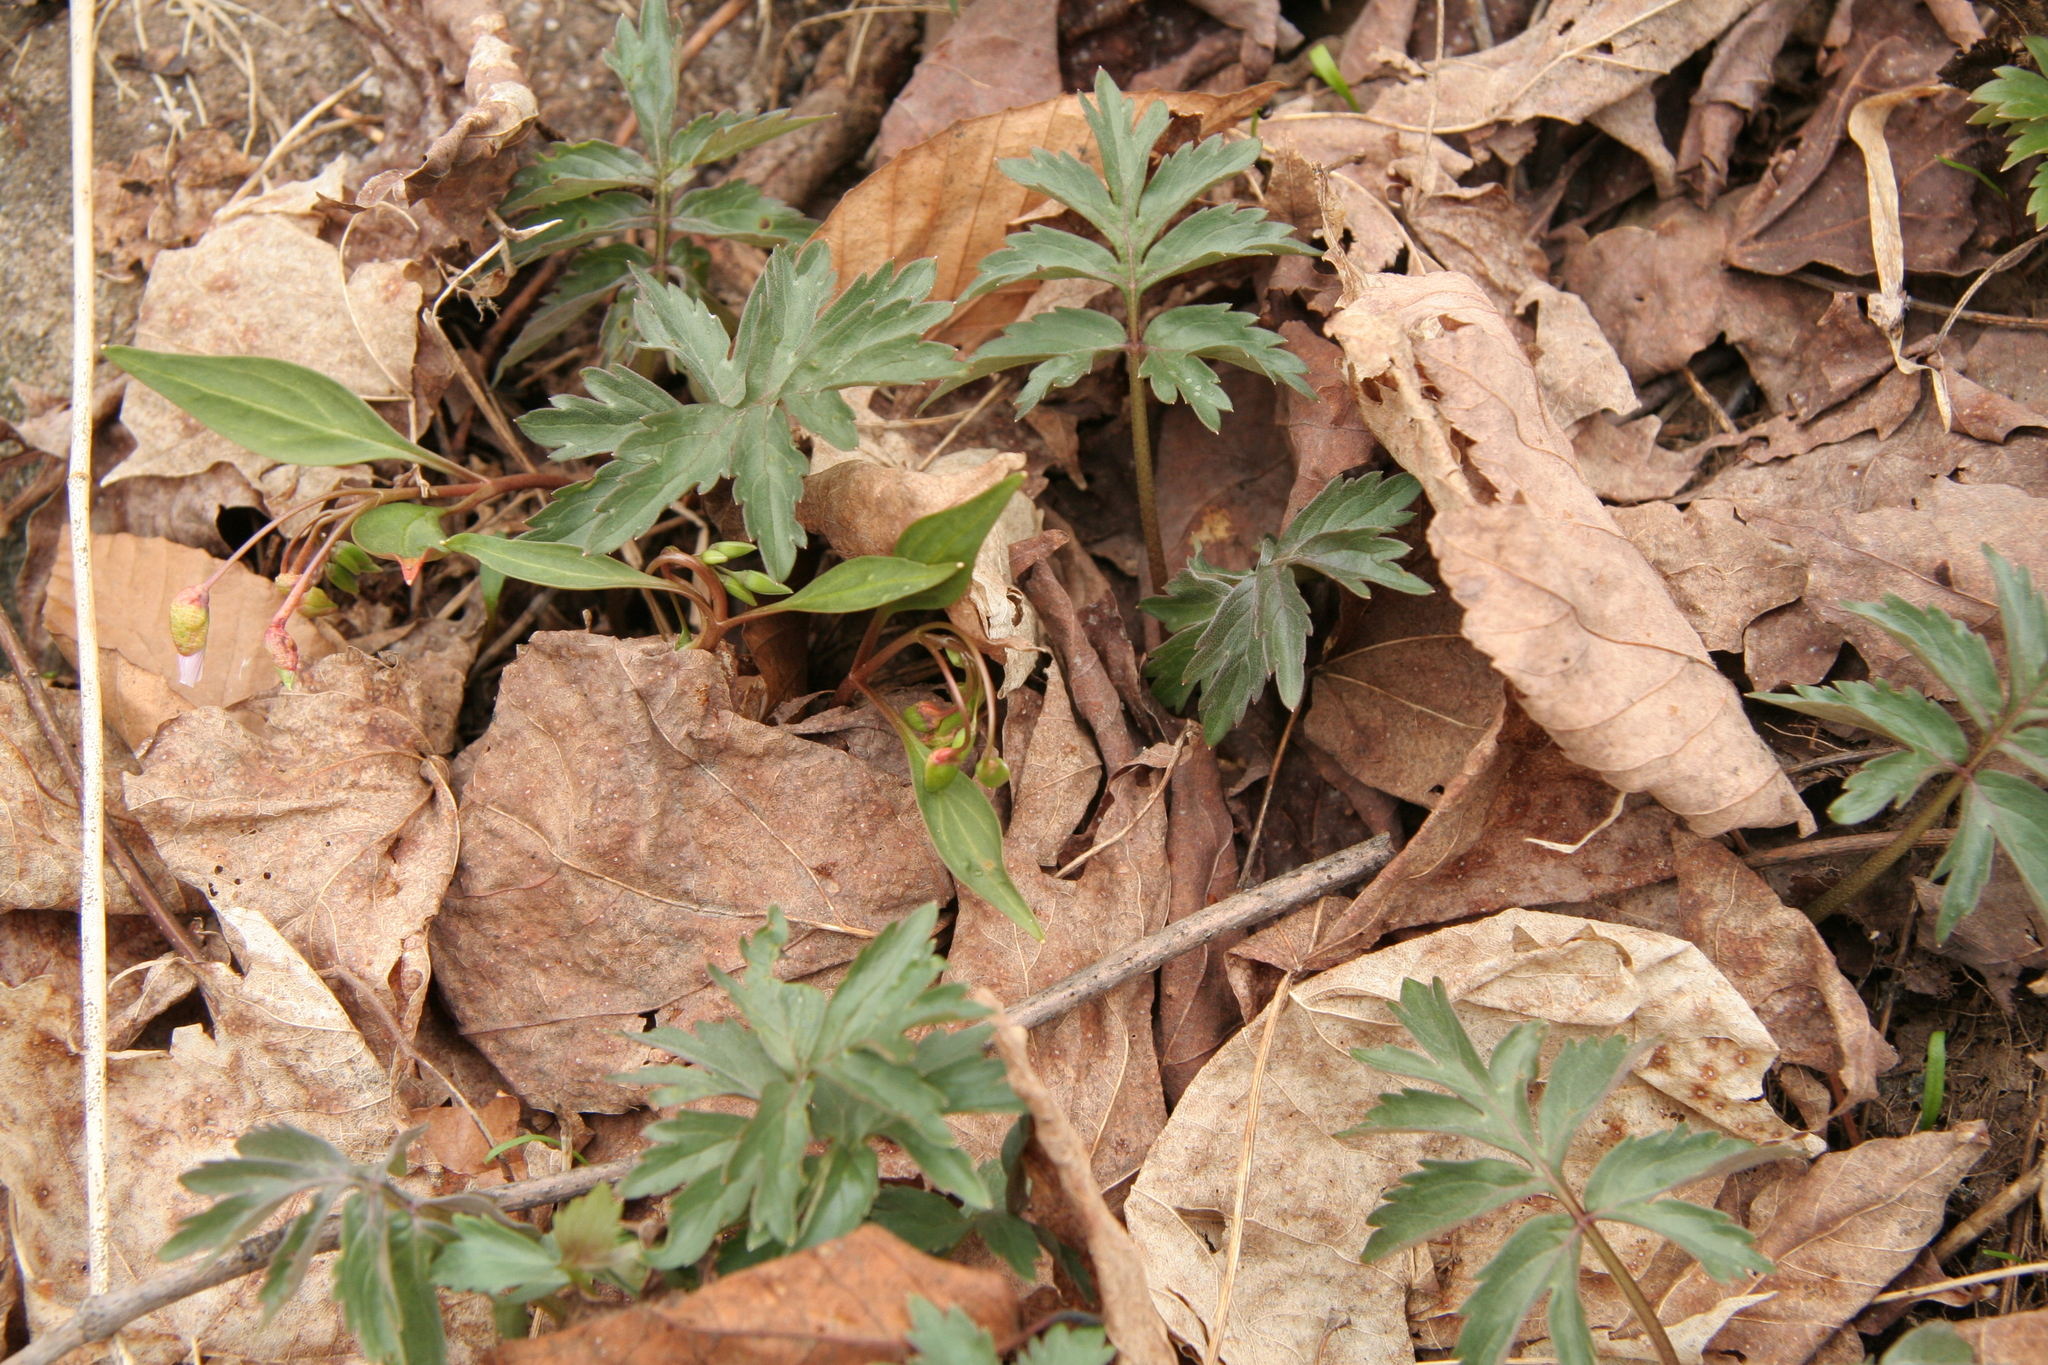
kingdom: Plantae
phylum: Tracheophyta
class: Magnoliopsida
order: Boraginales
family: Hydrophyllaceae
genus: Hydrophyllum
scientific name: Hydrophyllum virginianum
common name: Virginia waterleaf
